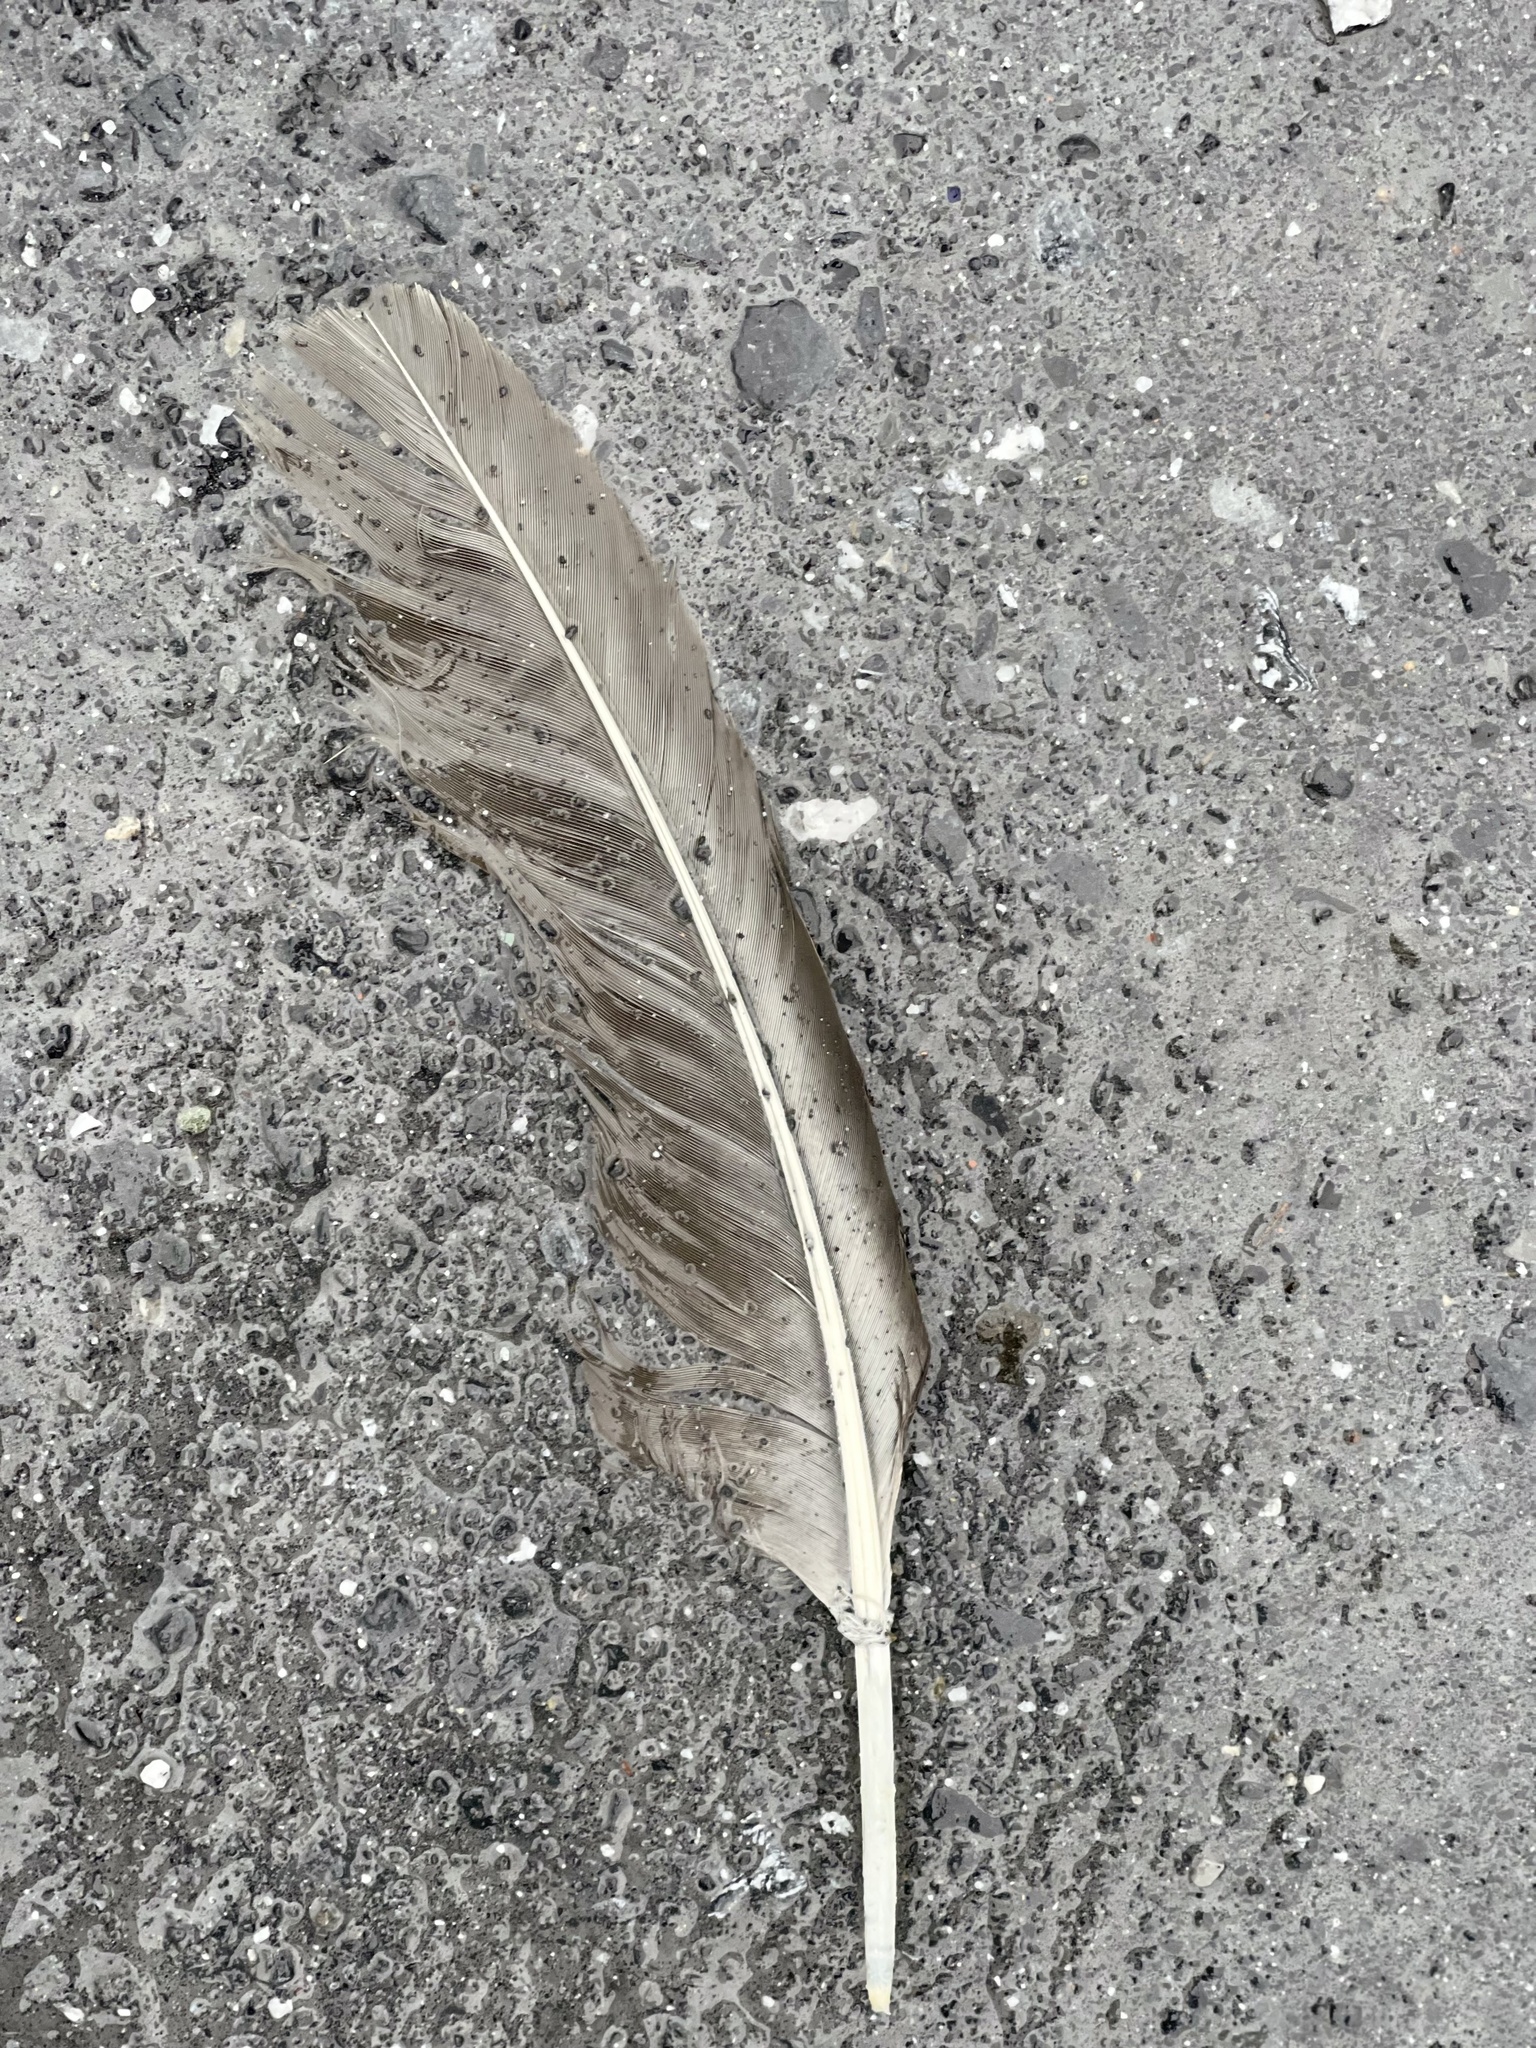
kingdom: Animalia
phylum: Chordata
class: Aves
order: Accipitriformes
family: Cathartidae
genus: Cathartes
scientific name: Cathartes aura
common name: Turkey vulture
